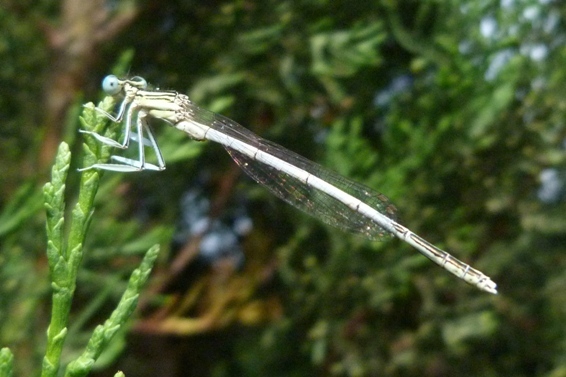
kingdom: Animalia
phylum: Arthropoda
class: Insecta
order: Odonata
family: Platycnemididae
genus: Platycnemis
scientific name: Platycnemis latipes
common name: White featherleg
